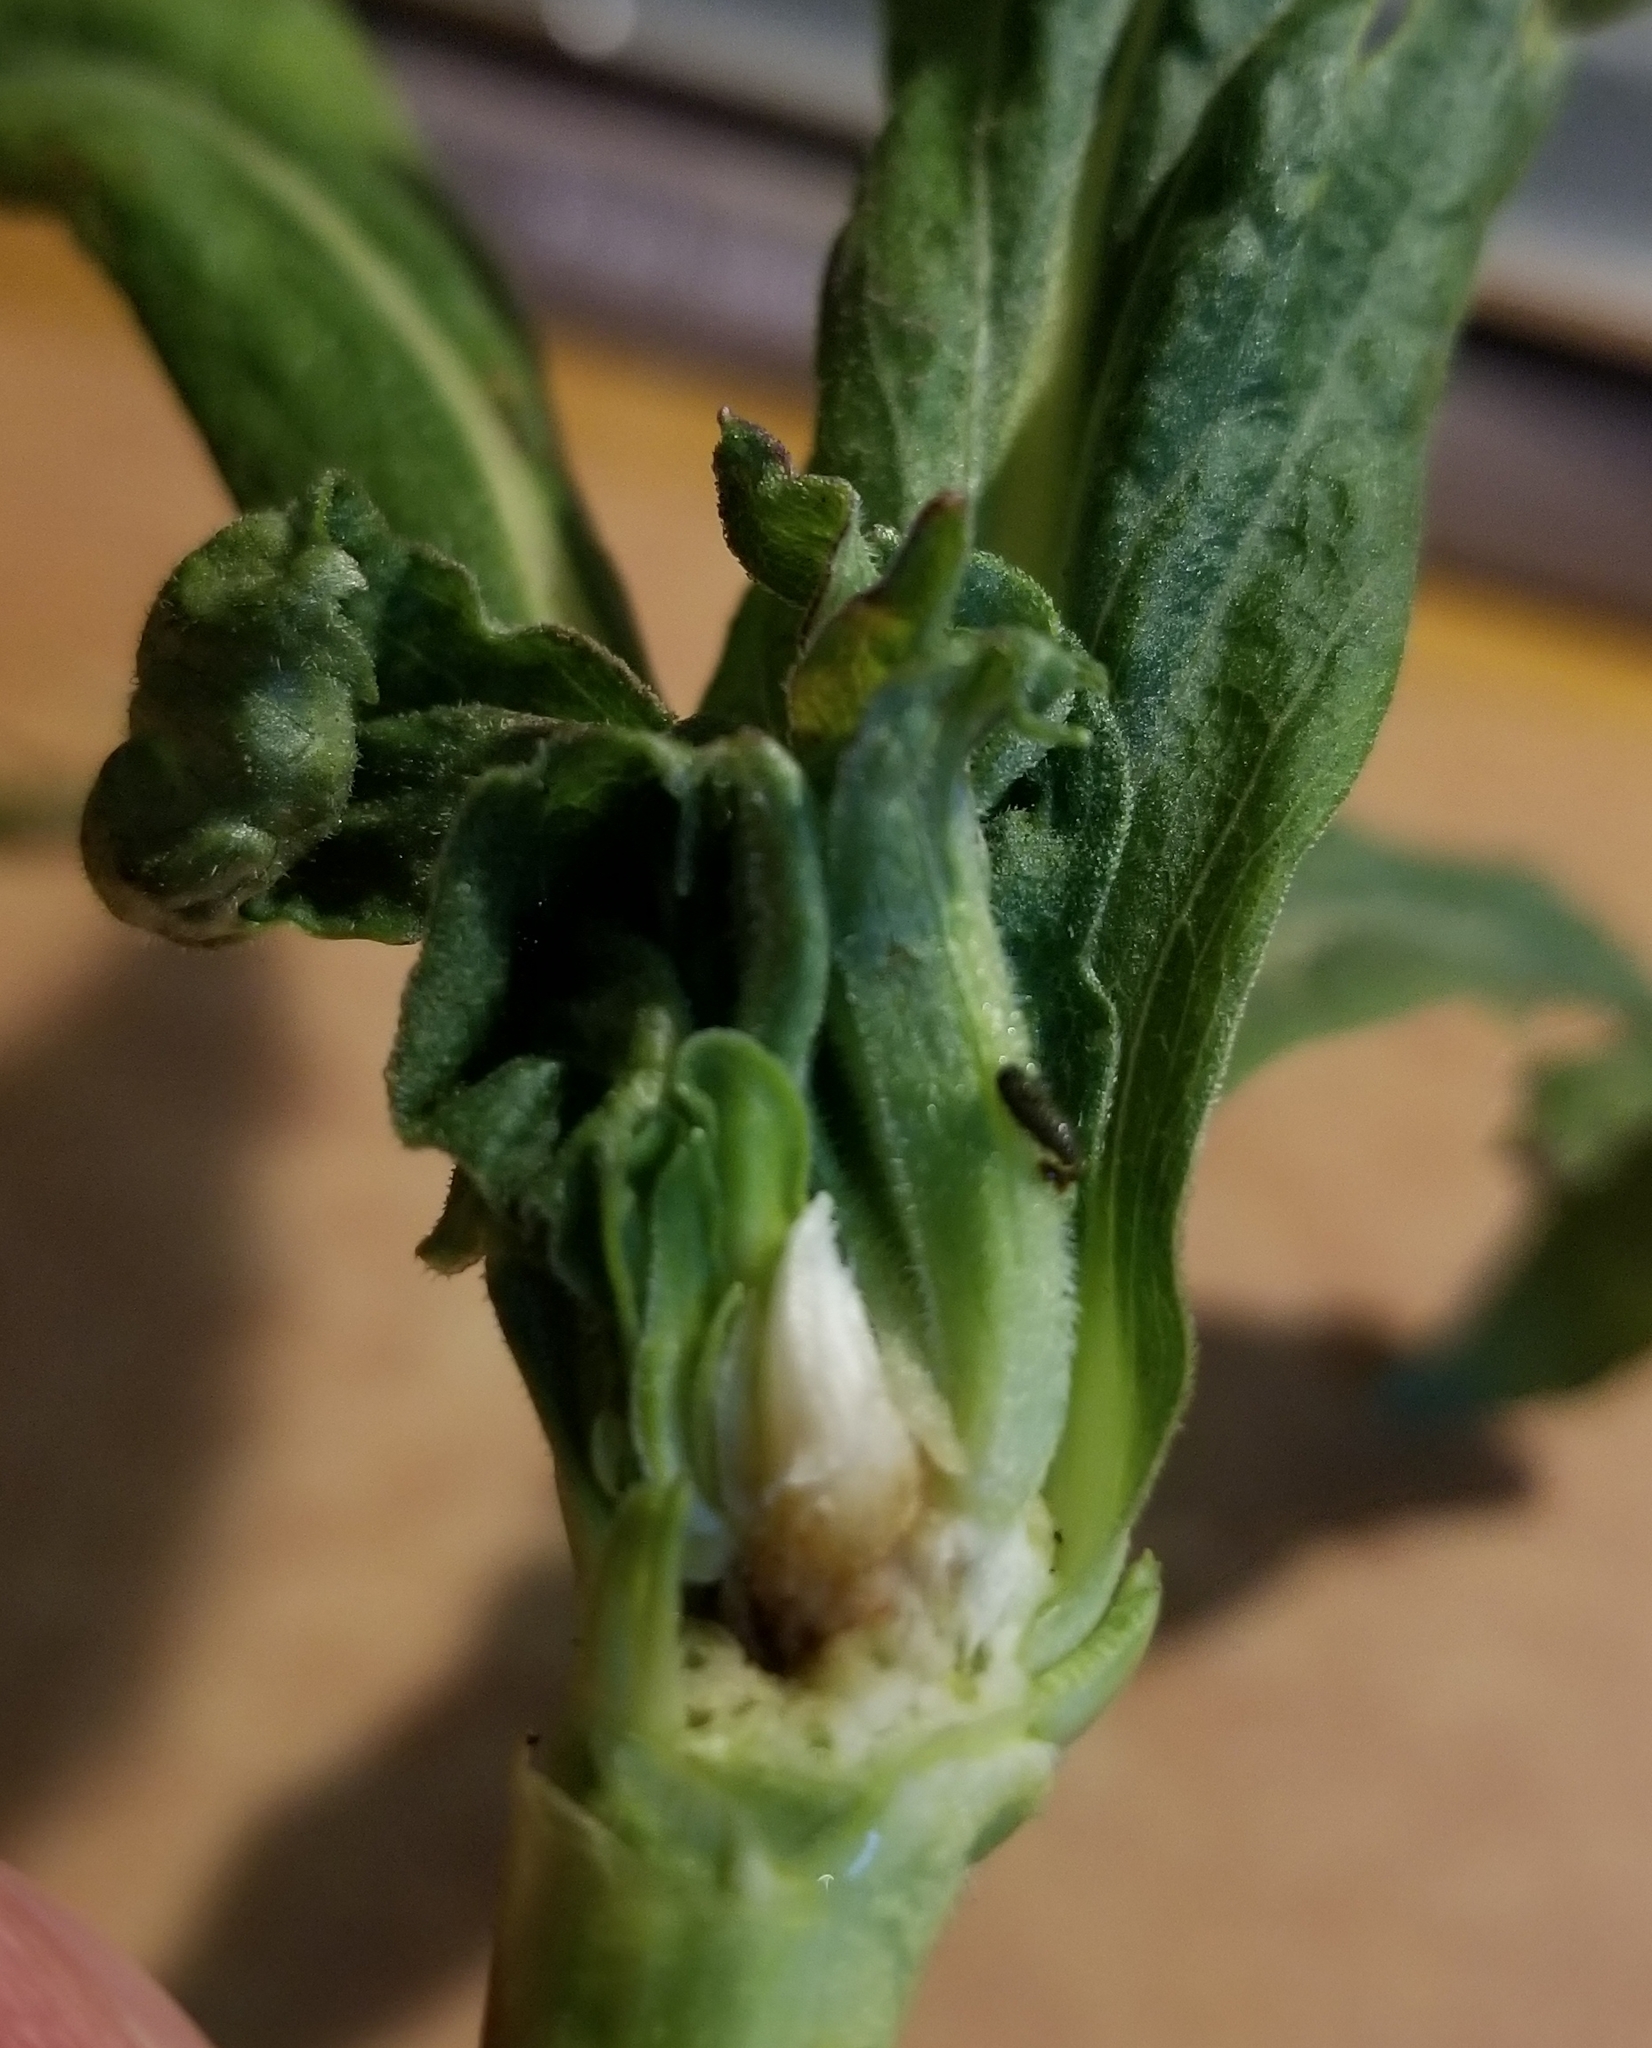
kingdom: Animalia
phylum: Arthropoda
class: Insecta
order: Diptera
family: Cecidomyiidae
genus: Rhopalomyia
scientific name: Rhopalomyia solidaginis
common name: Goldenrod bunch gall midge
